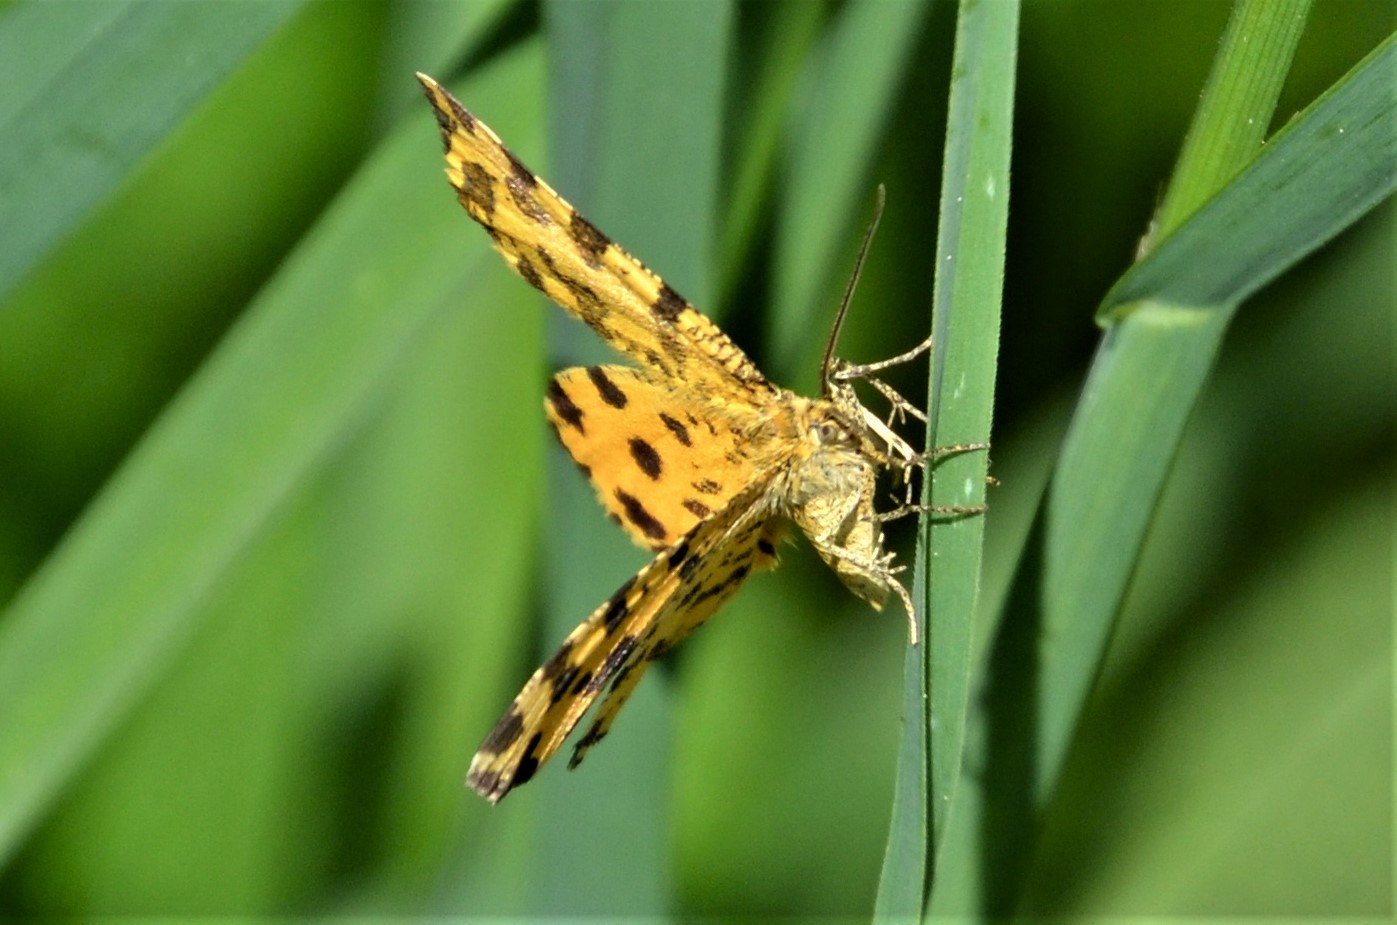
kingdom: Animalia
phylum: Arthropoda
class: Insecta
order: Lepidoptera
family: Geometridae
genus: Pseudopanthera
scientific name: Pseudopanthera macularia
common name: Speckled yellow
